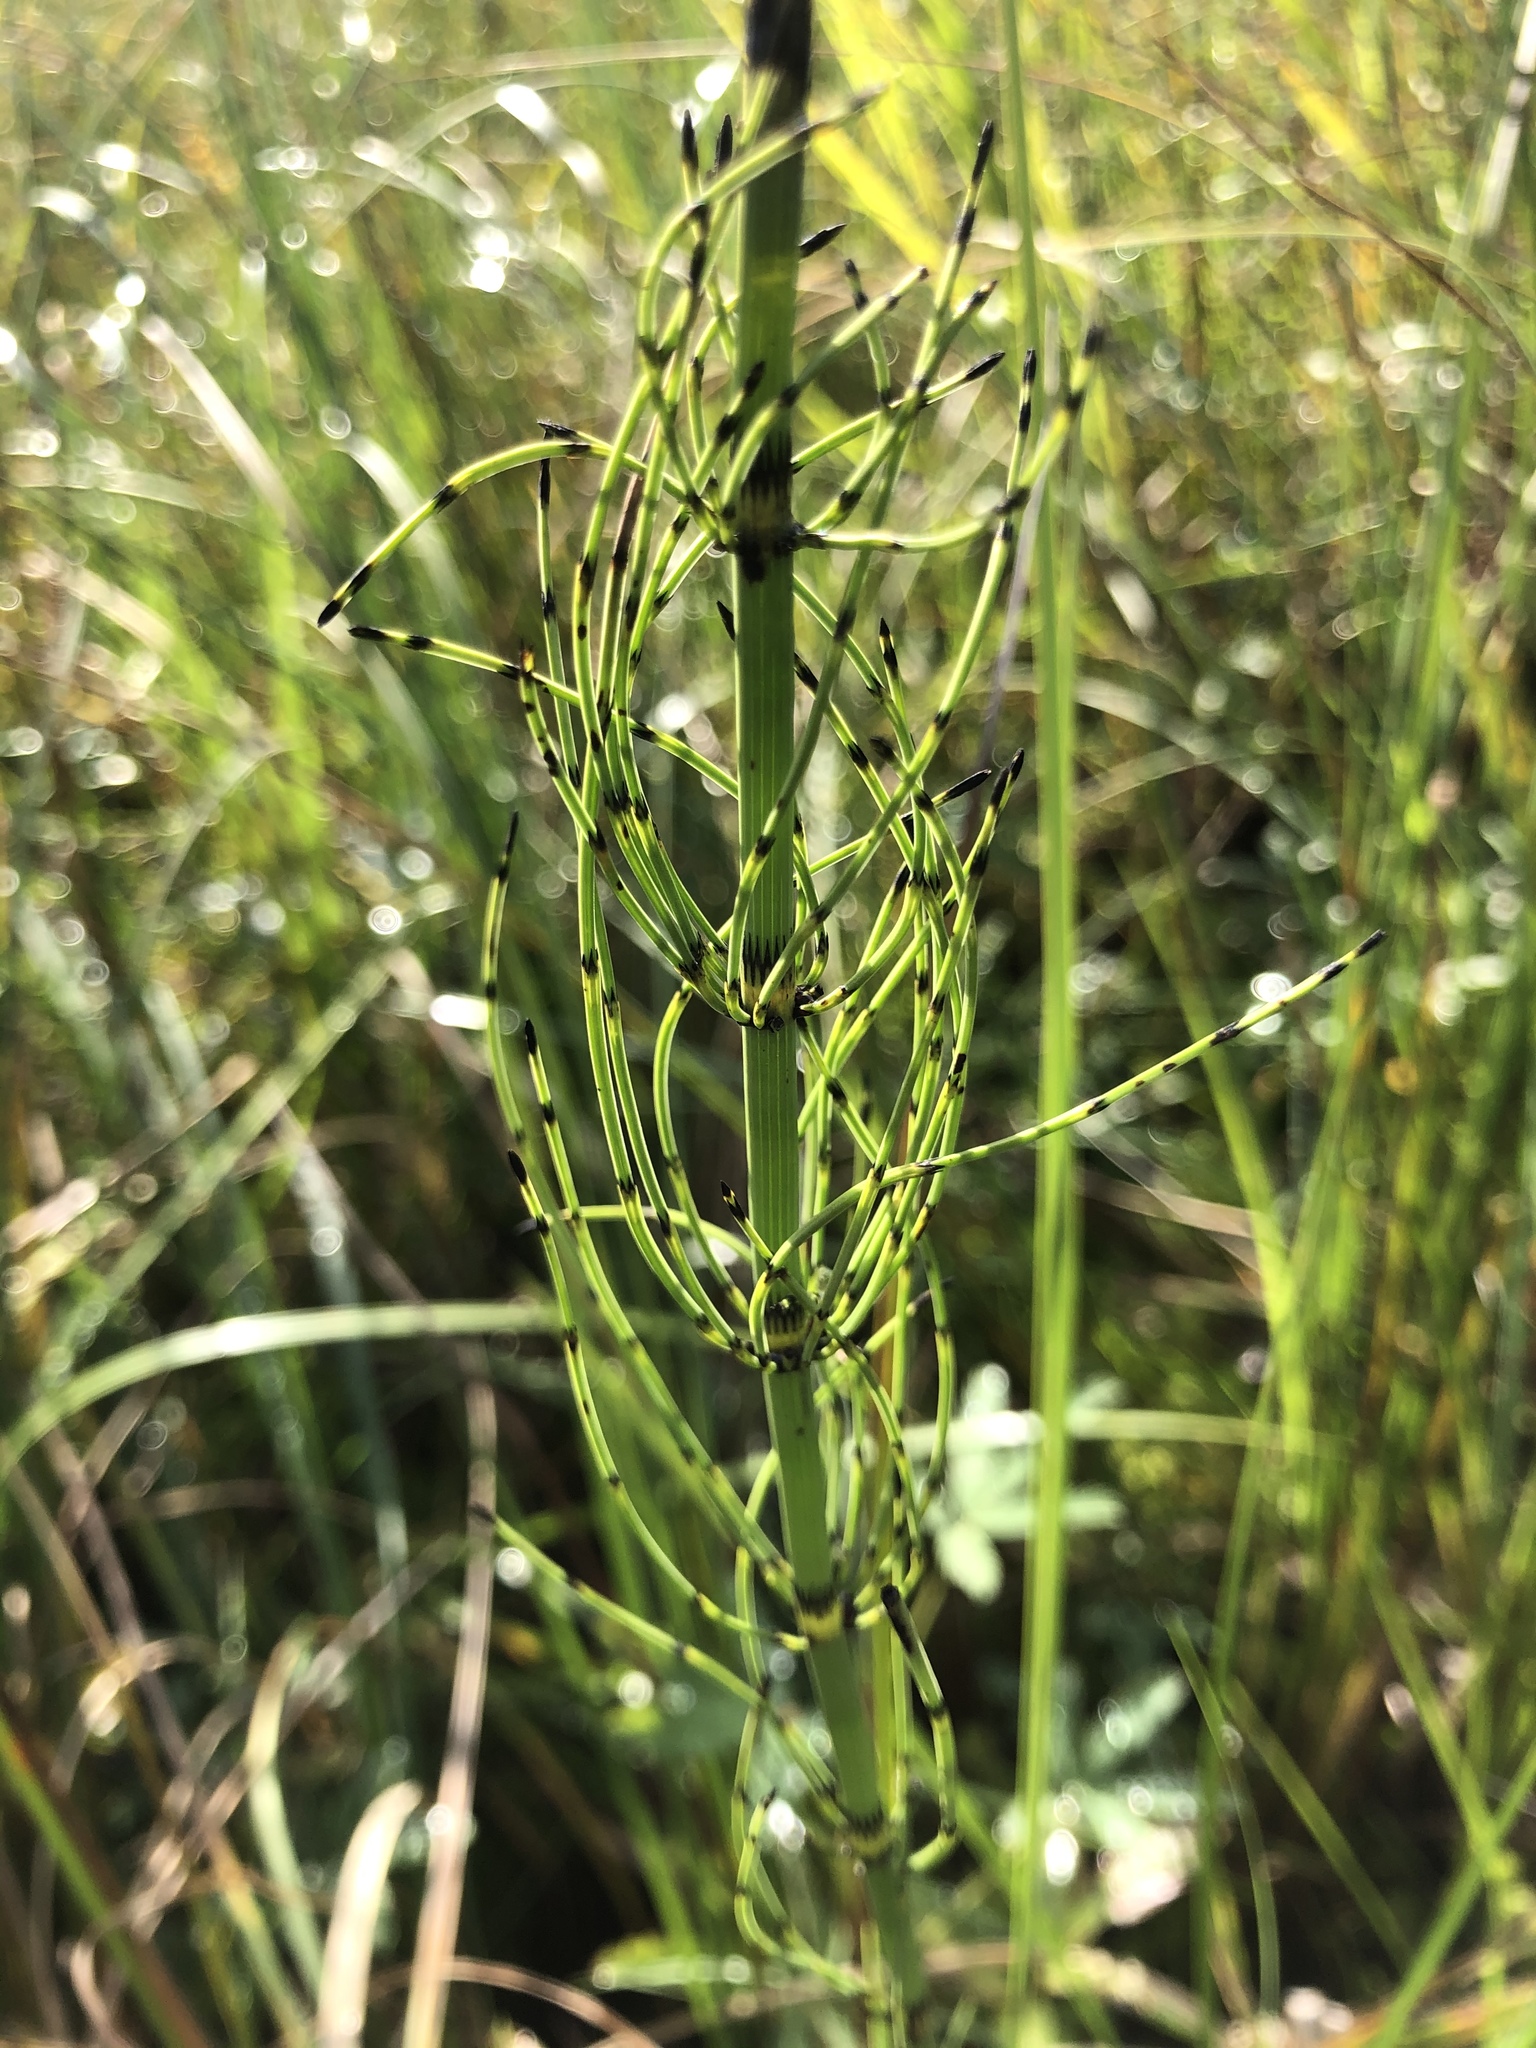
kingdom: Plantae
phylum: Tracheophyta
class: Polypodiopsida
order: Equisetales
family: Equisetaceae
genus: Equisetum
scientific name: Equisetum fluviatile
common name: Water horsetail
